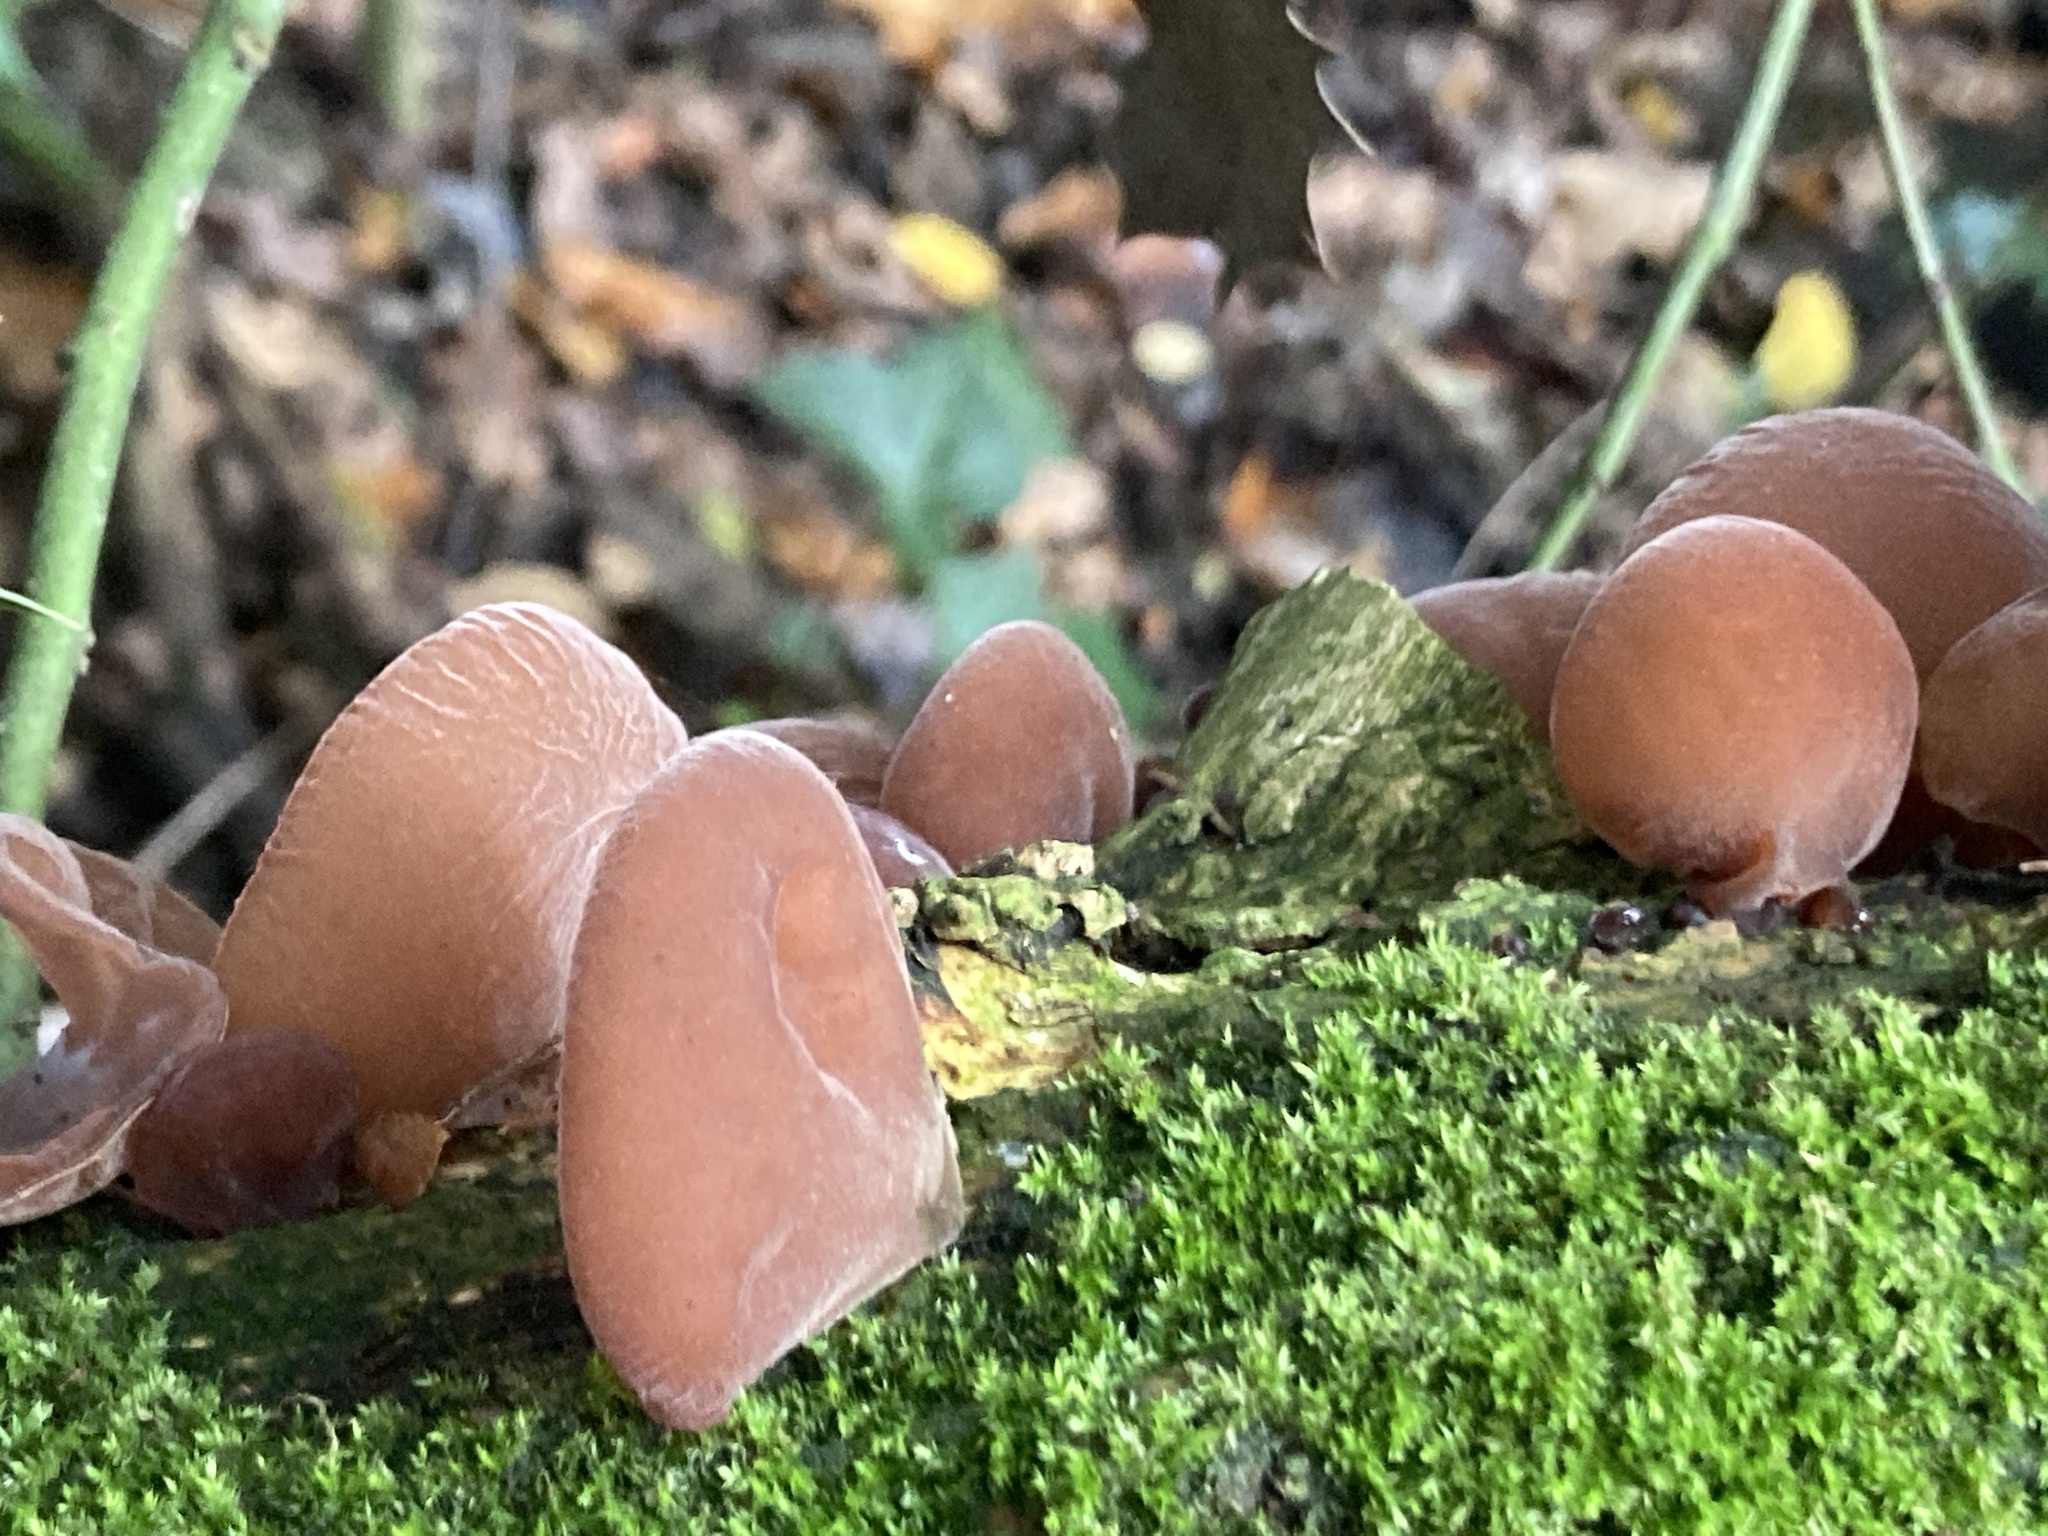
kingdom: Fungi
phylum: Basidiomycota
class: Agaricomycetes
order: Auriculariales
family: Auriculariaceae
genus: Auricularia
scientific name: Auricularia auricula-judae
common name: Jelly ear
